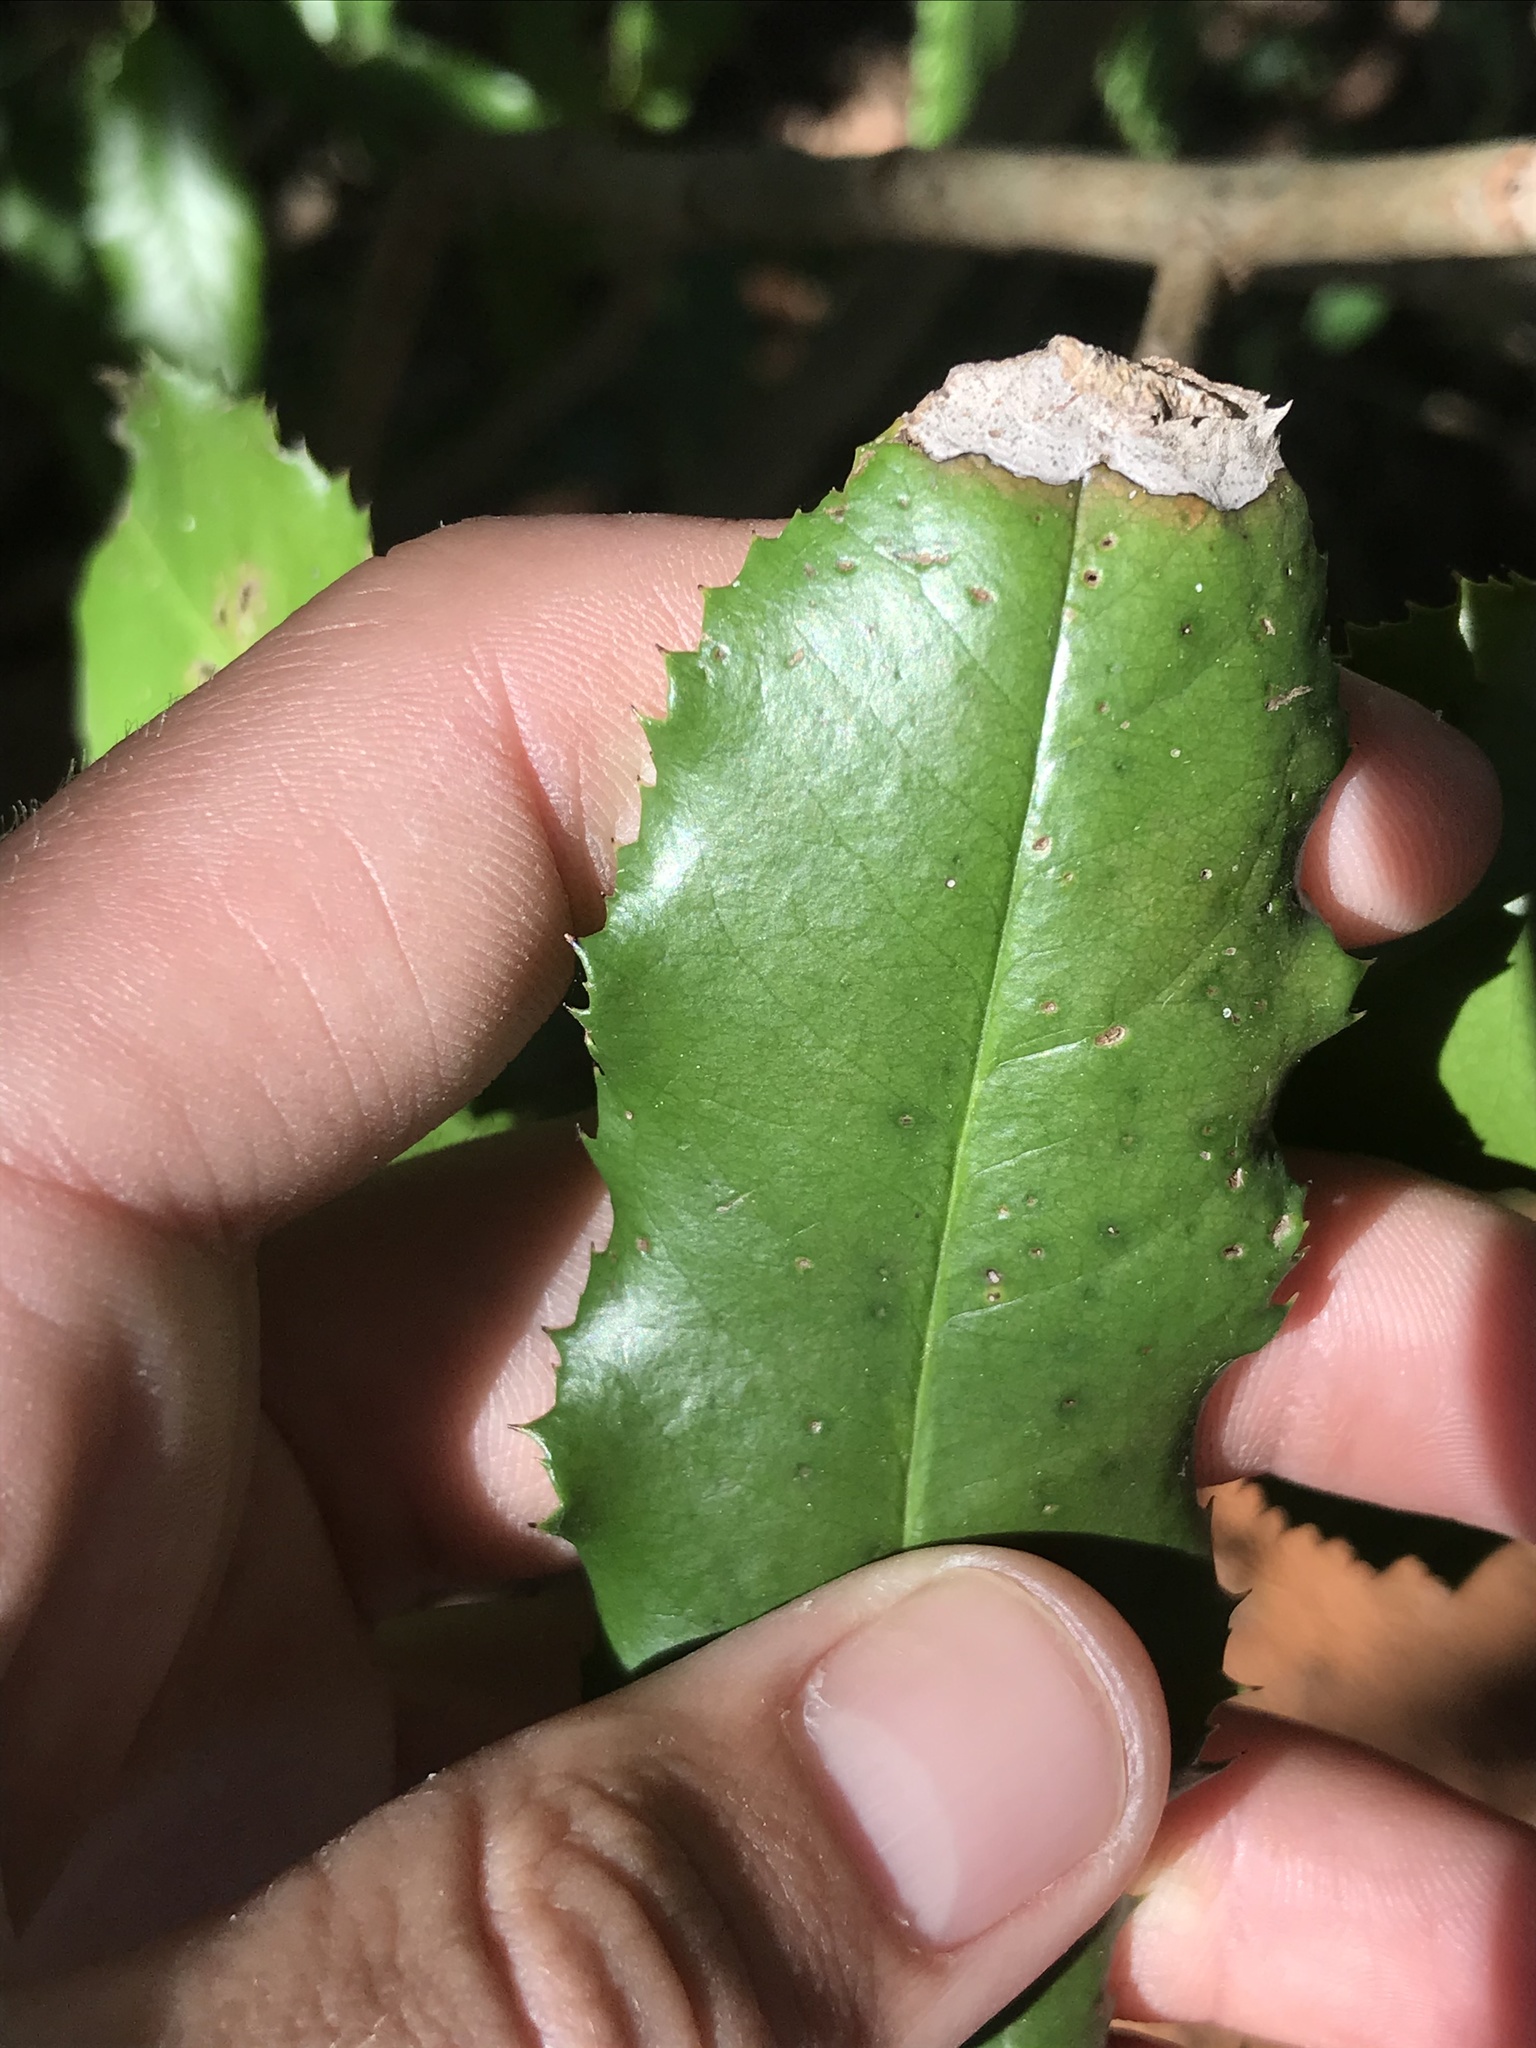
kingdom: Plantae
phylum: Tracheophyta
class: Magnoliopsida
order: Rosales
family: Rosaceae
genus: Photinia
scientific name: Photinia serratifolia
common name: Taiwanese photinia
